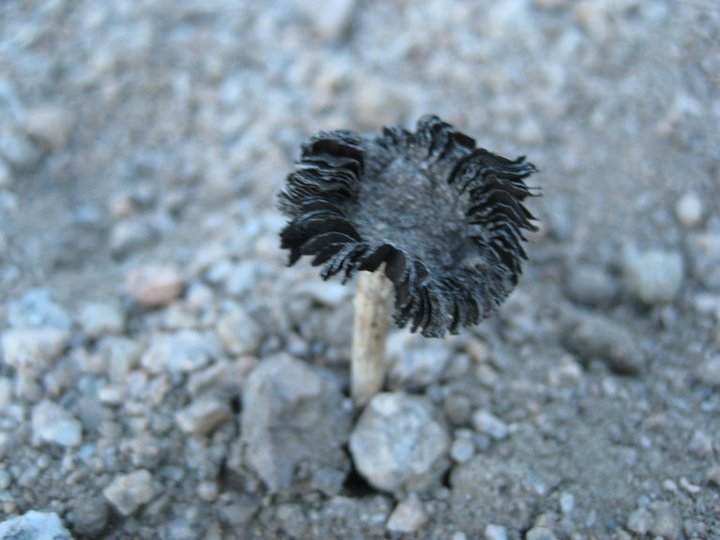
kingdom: Fungi
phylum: Basidiomycota
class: Agaricomycetes
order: Agaricales
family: Agaricaceae
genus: Montagnea
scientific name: Montagnea arenaria
